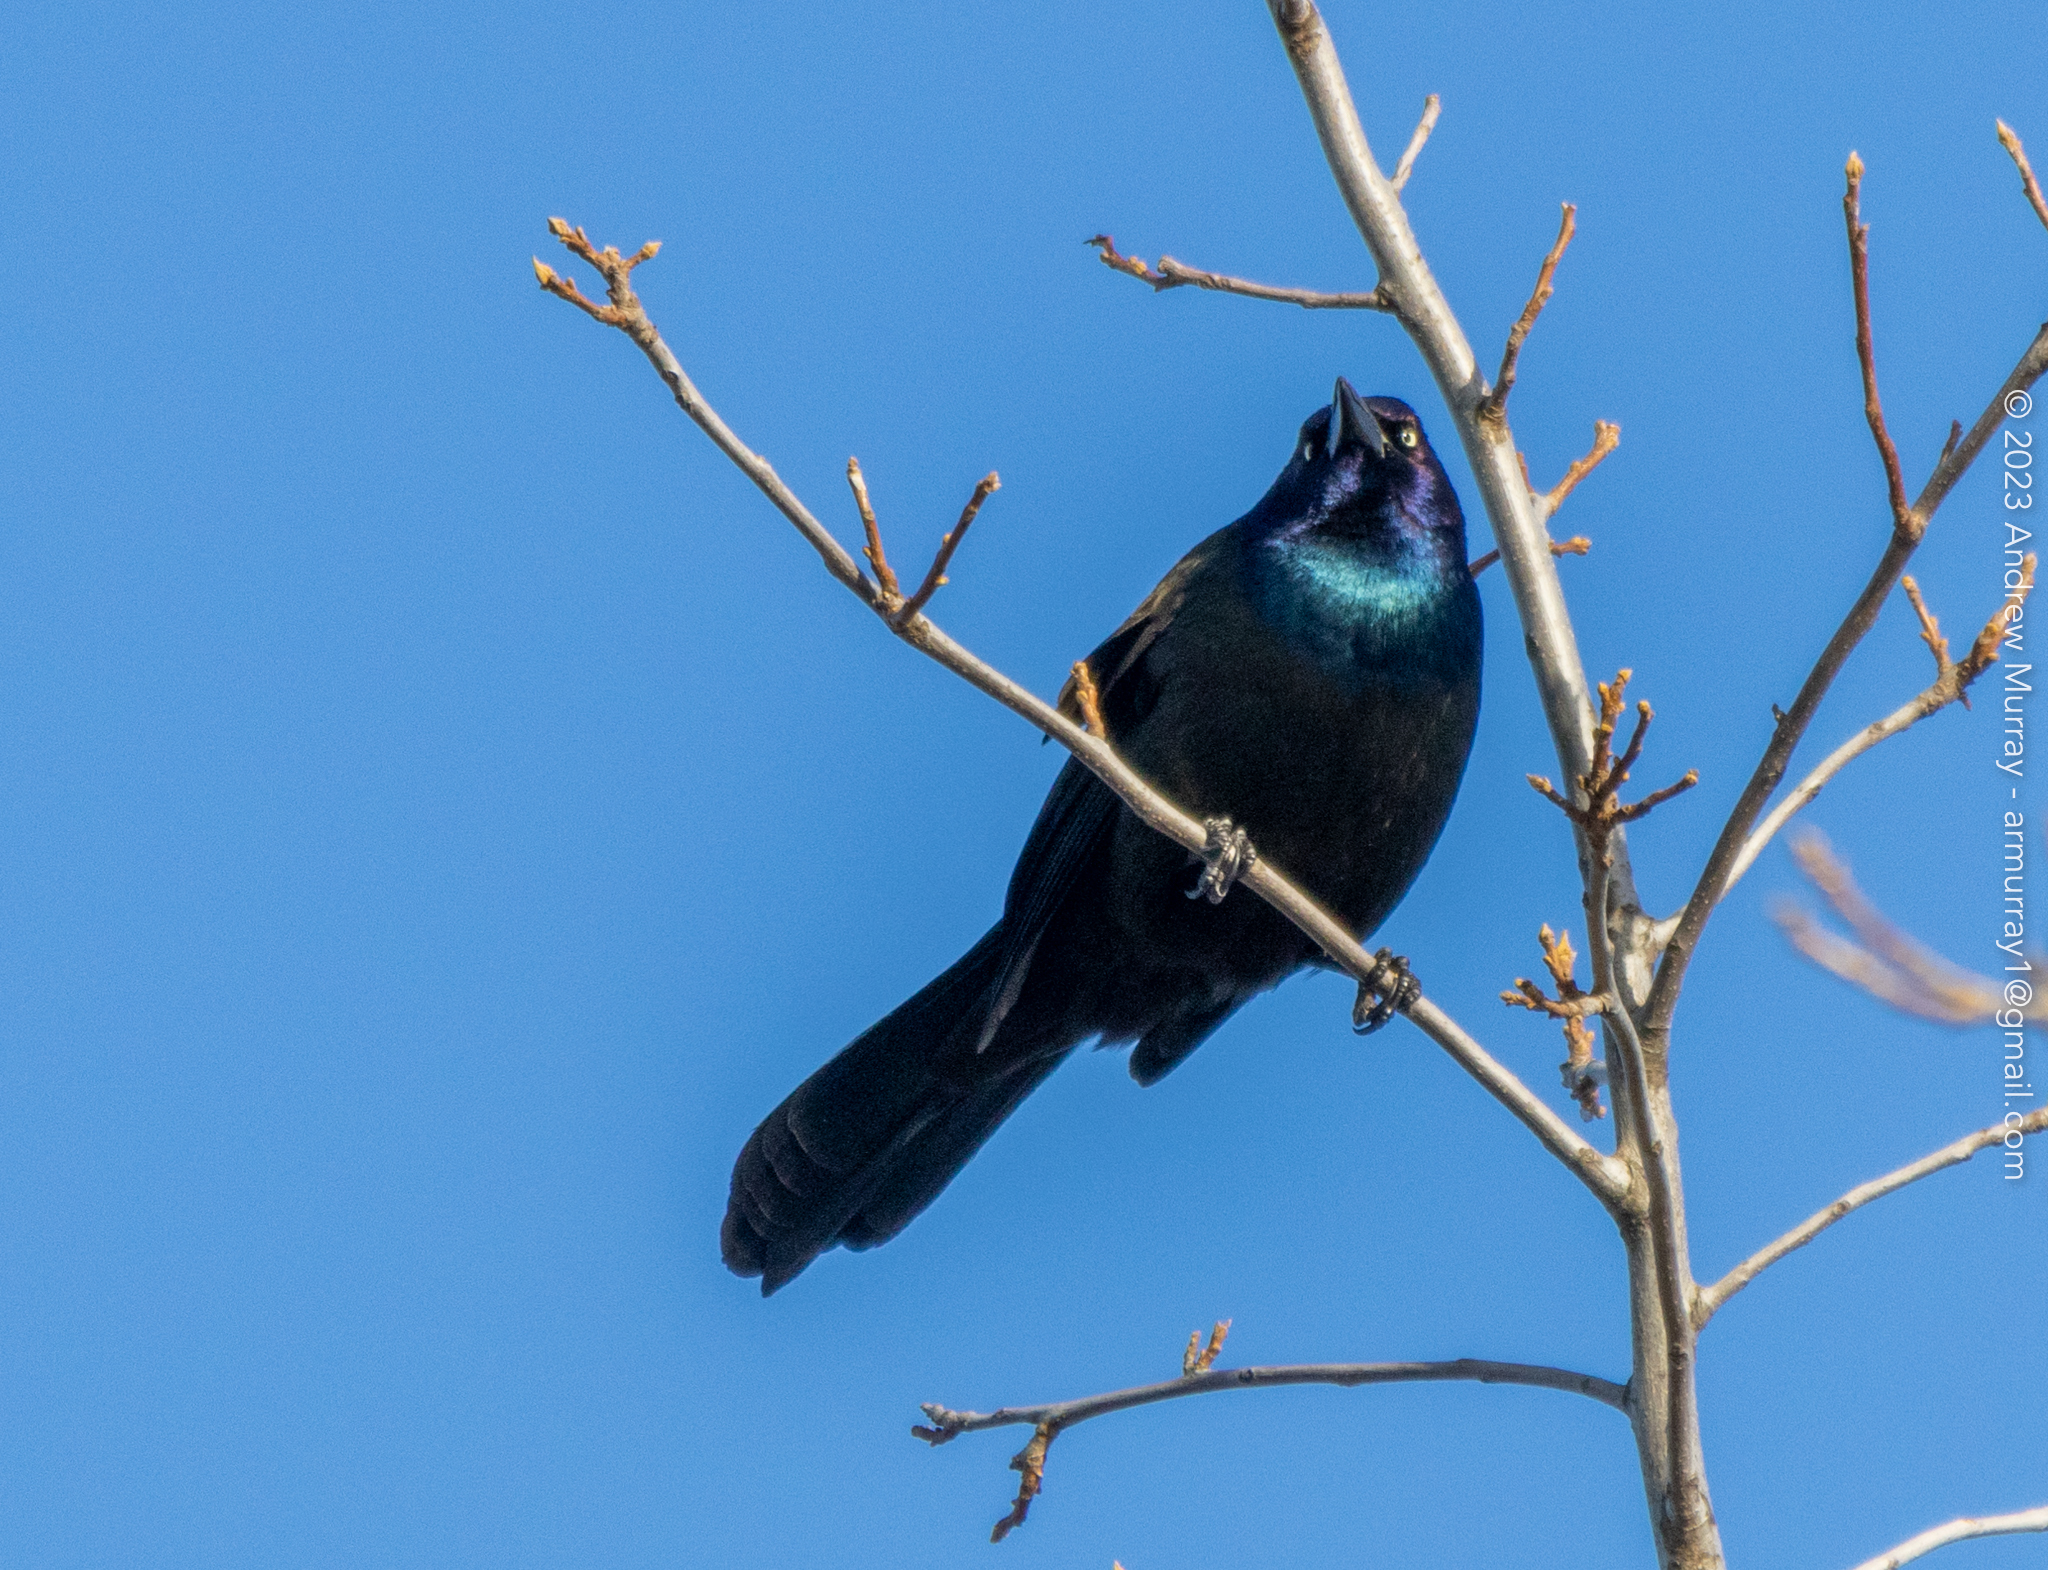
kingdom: Animalia
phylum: Chordata
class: Aves
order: Passeriformes
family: Icteridae
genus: Quiscalus
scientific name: Quiscalus quiscula
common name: Common grackle
